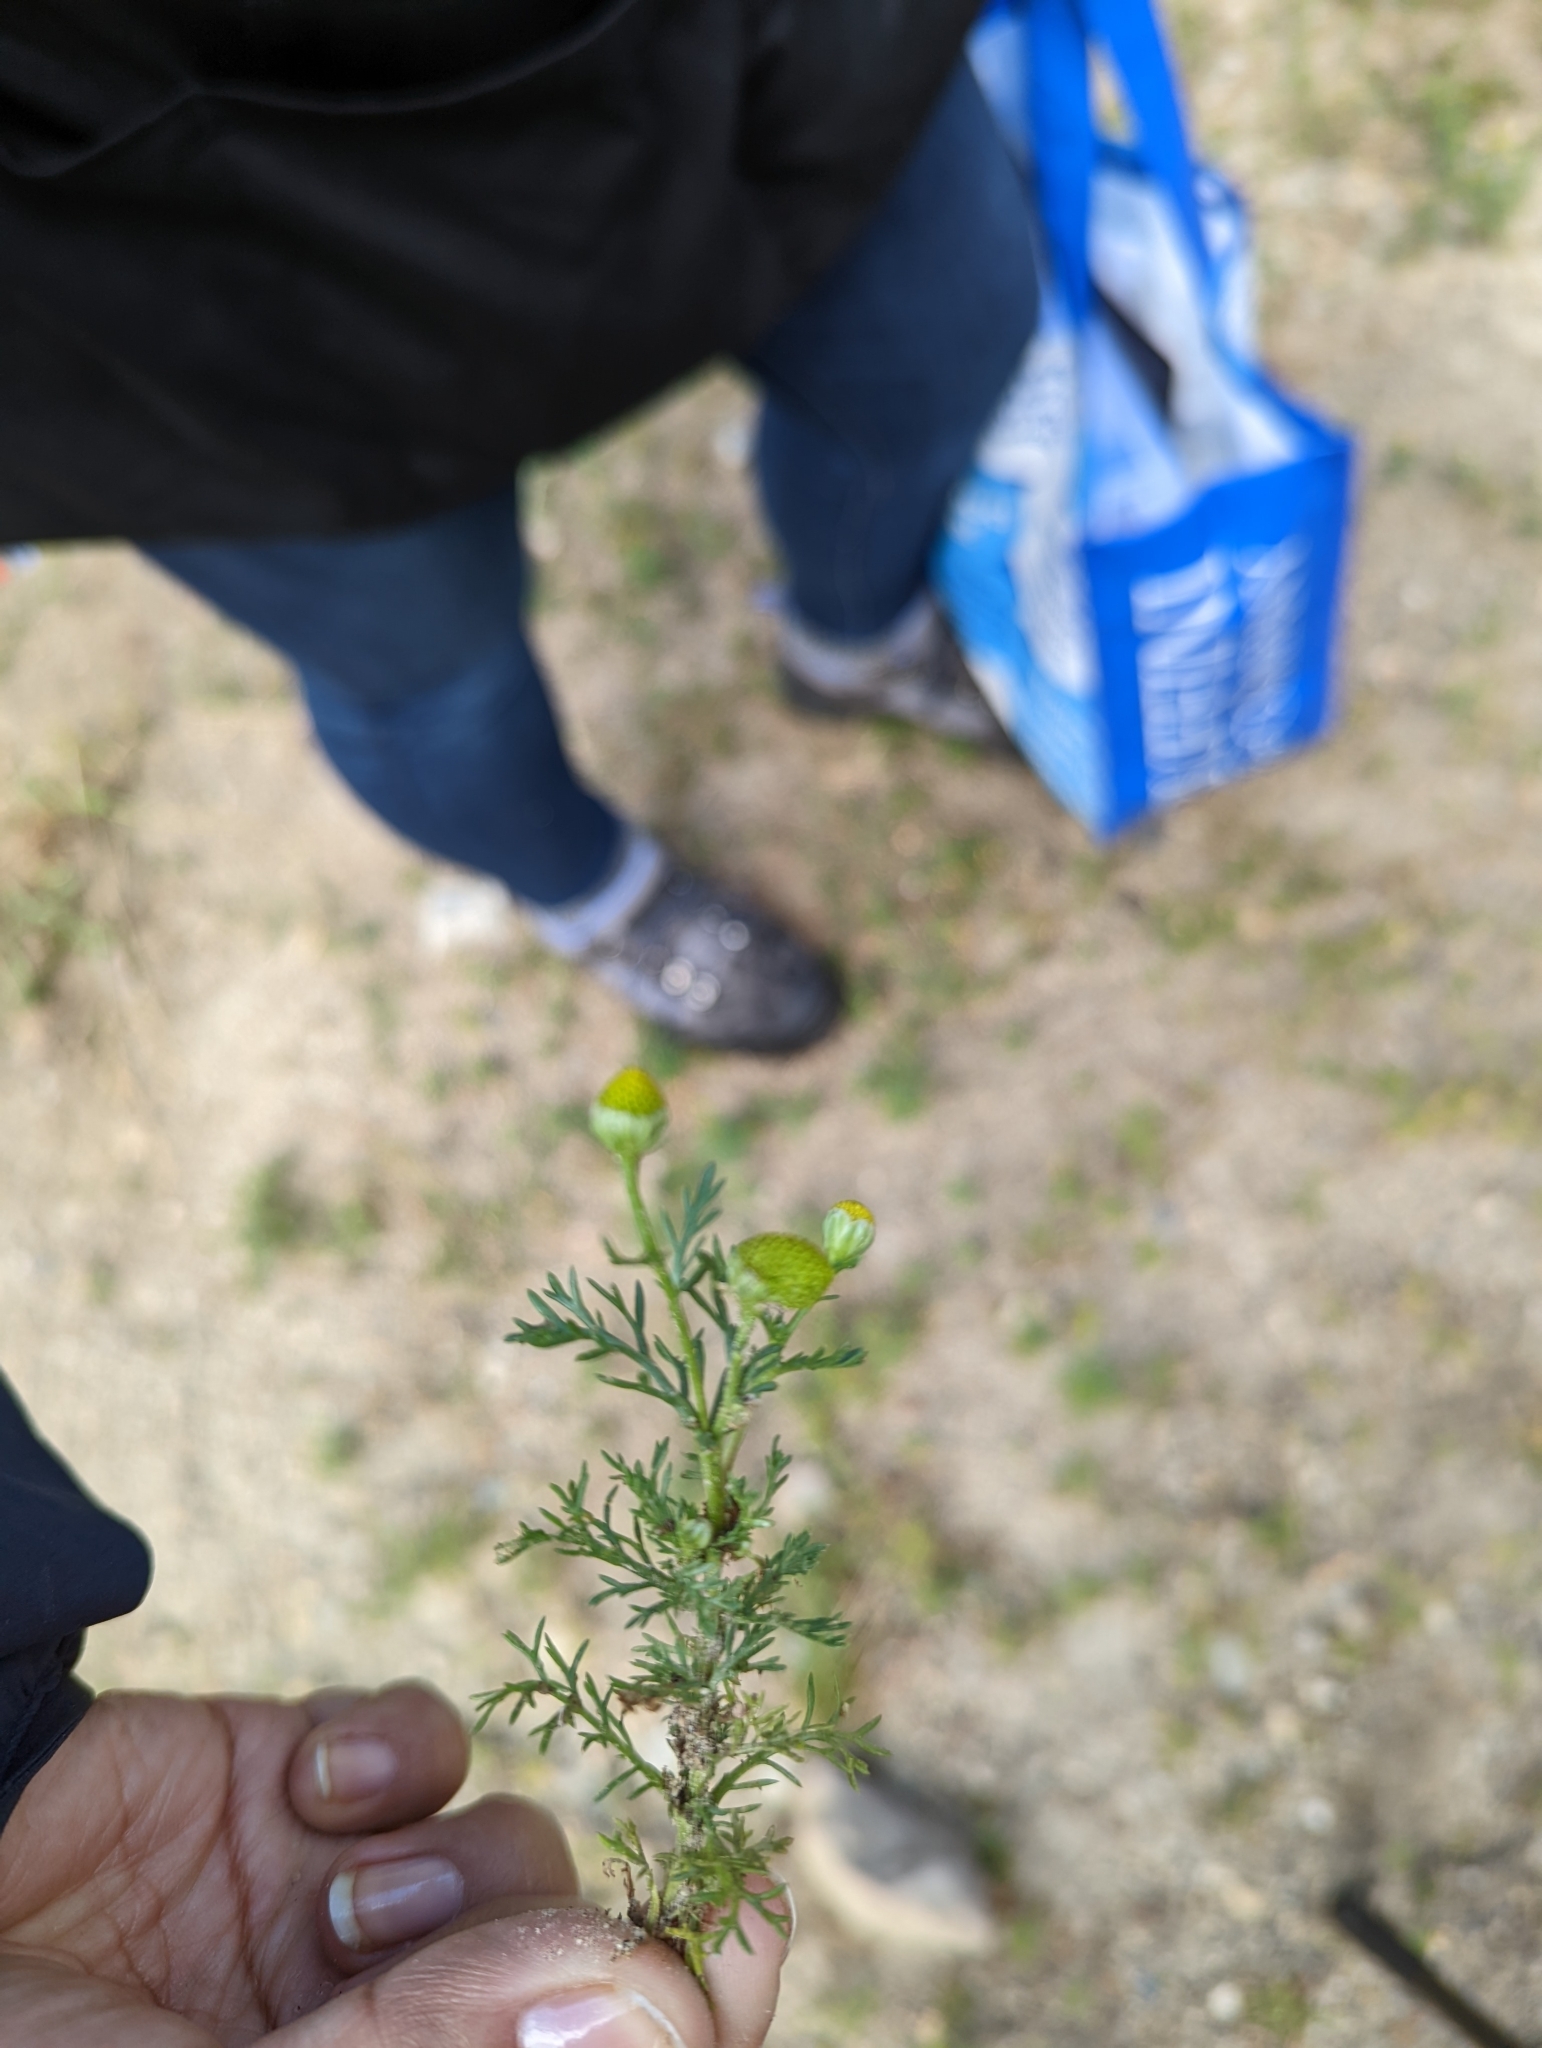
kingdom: Plantae
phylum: Tracheophyta
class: Magnoliopsida
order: Asterales
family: Asteraceae
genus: Matricaria
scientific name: Matricaria discoidea
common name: Disc mayweed
